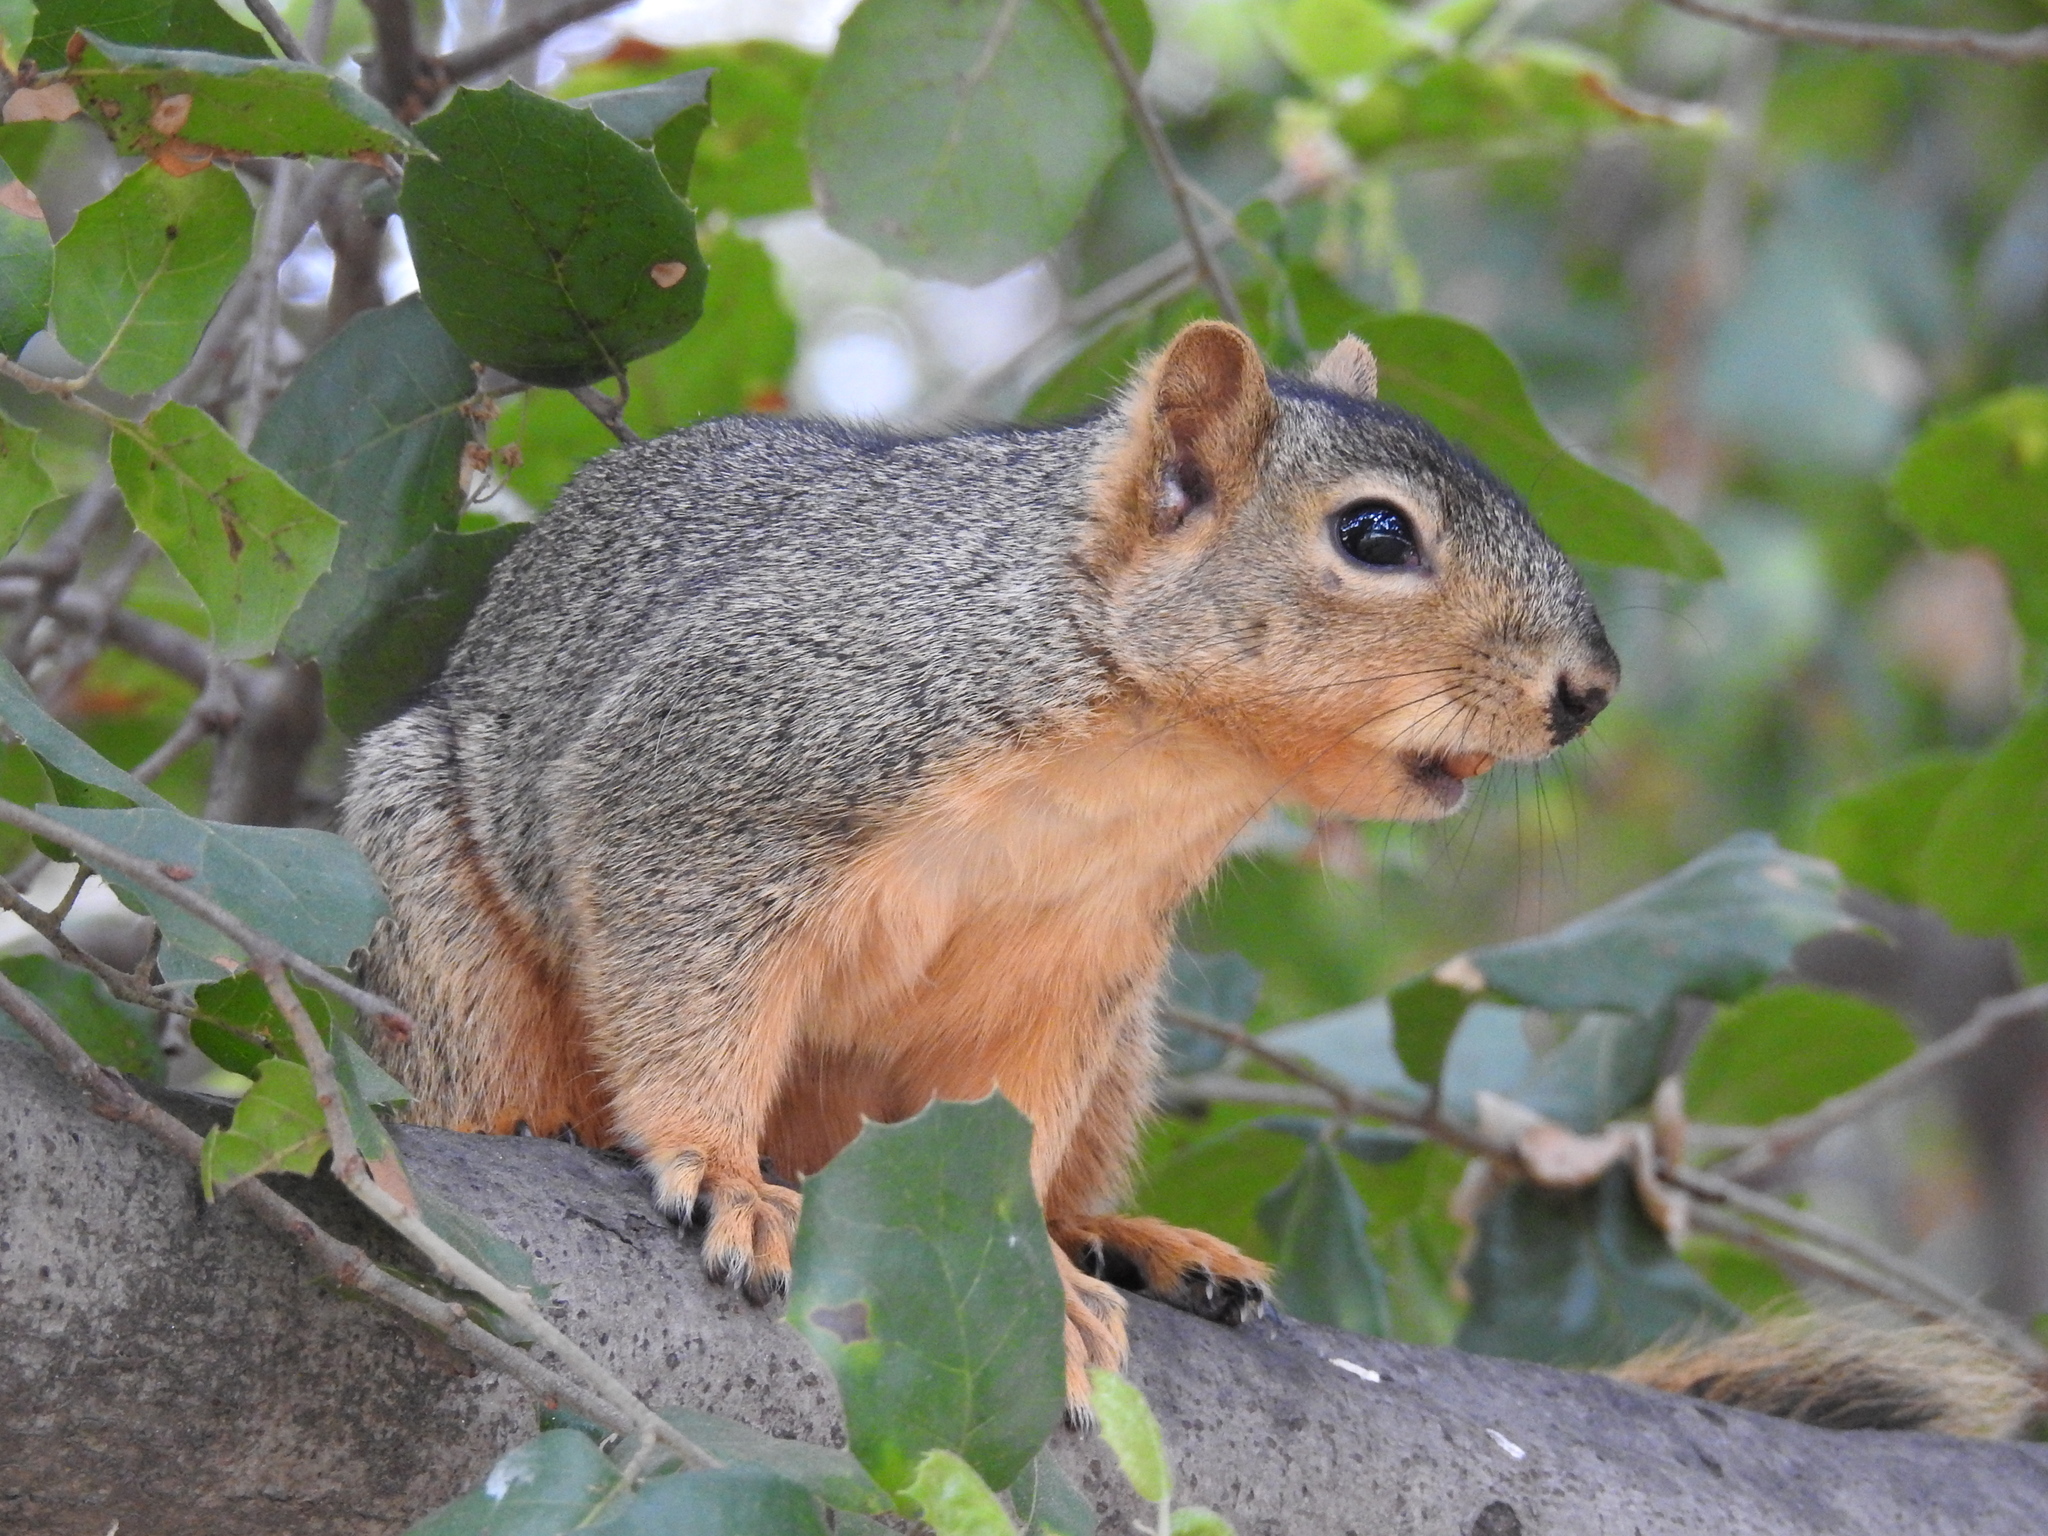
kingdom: Animalia
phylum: Chordata
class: Mammalia
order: Rodentia
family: Sciuridae
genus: Sciurus
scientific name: Sciurus niger
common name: Fox squirrel
